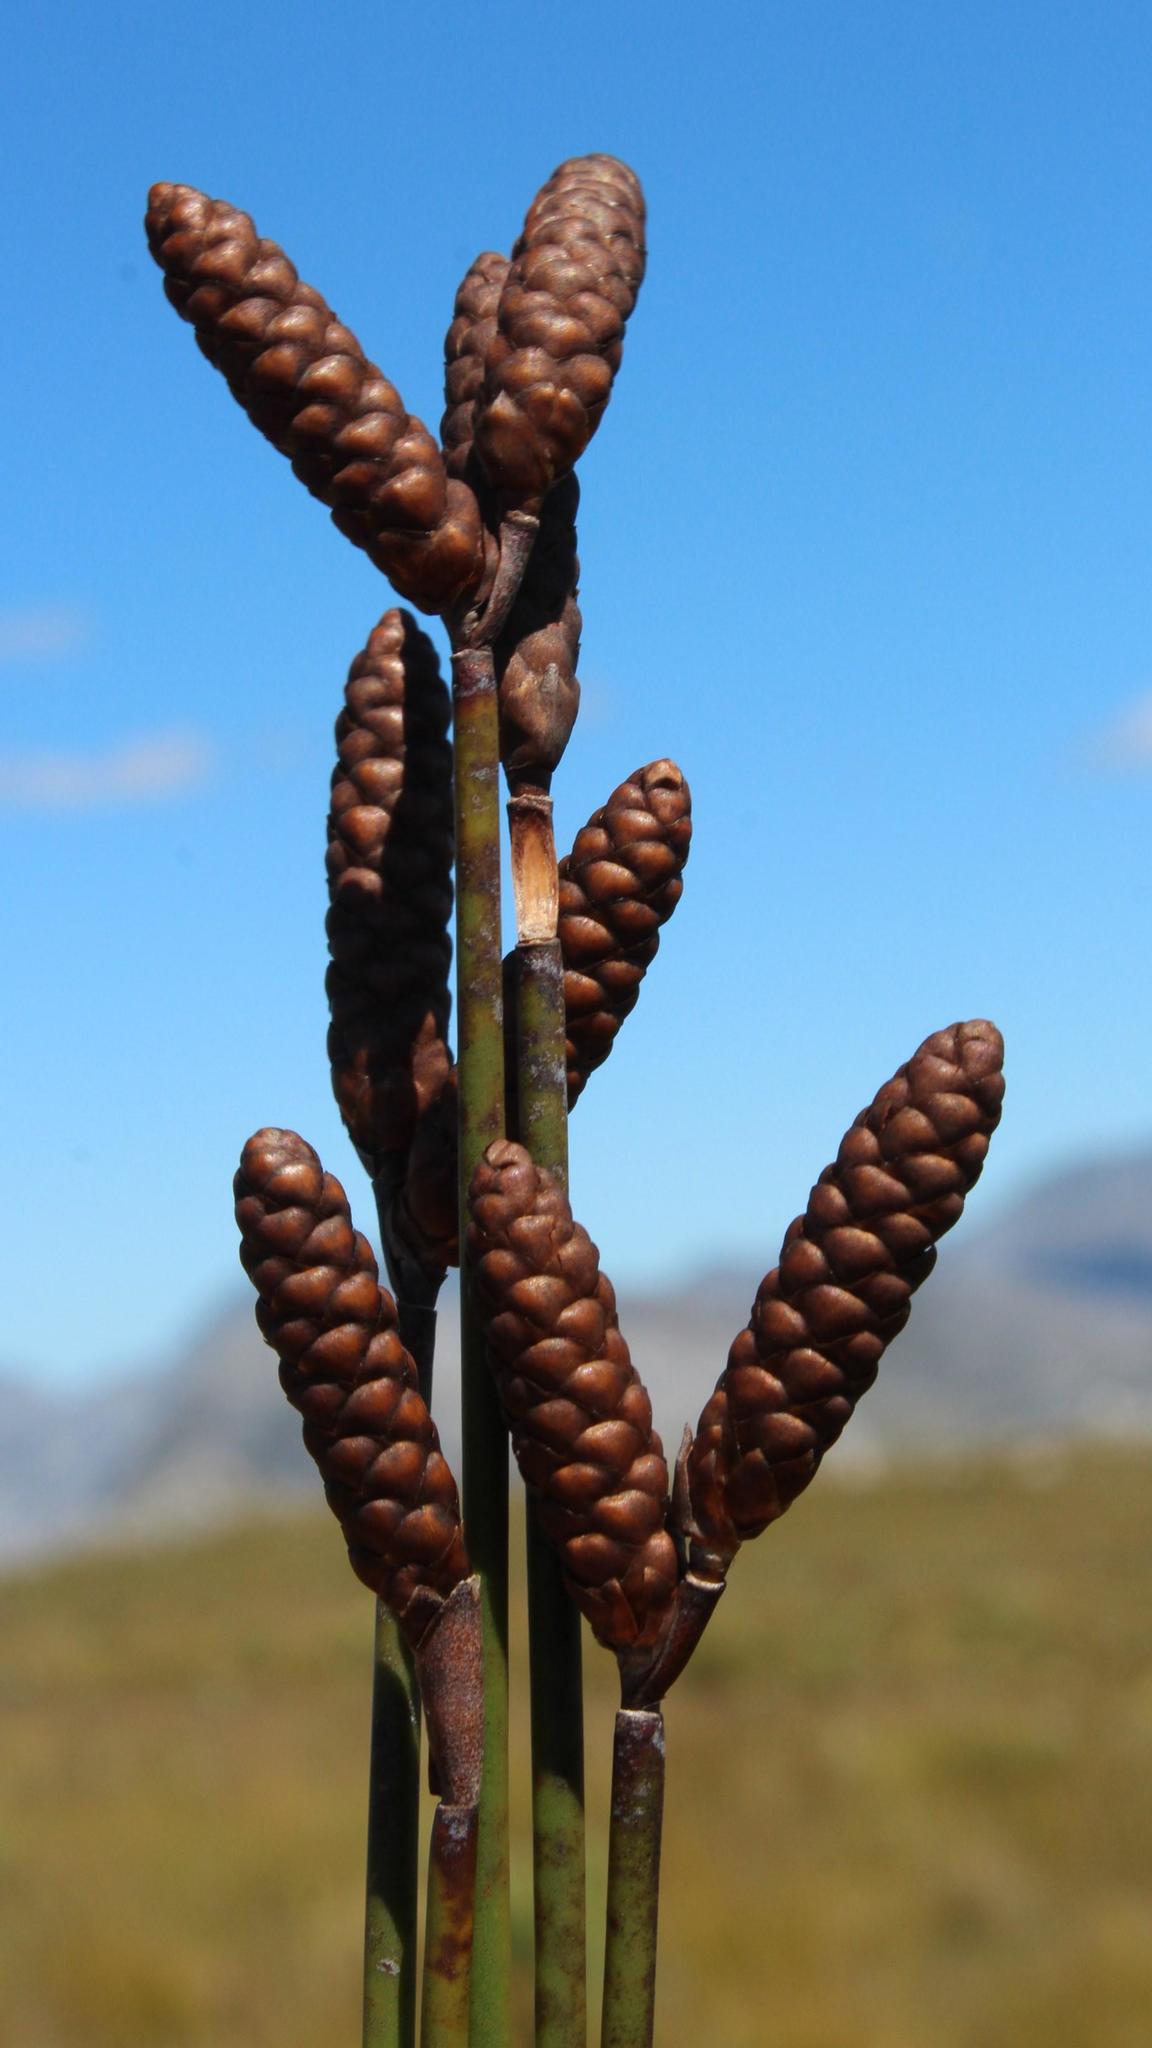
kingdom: Plantae
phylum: Tracheophyta
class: Liliopsida
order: Poales
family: Restionaceae
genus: Nevillea
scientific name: Nevillea obtusissimus
